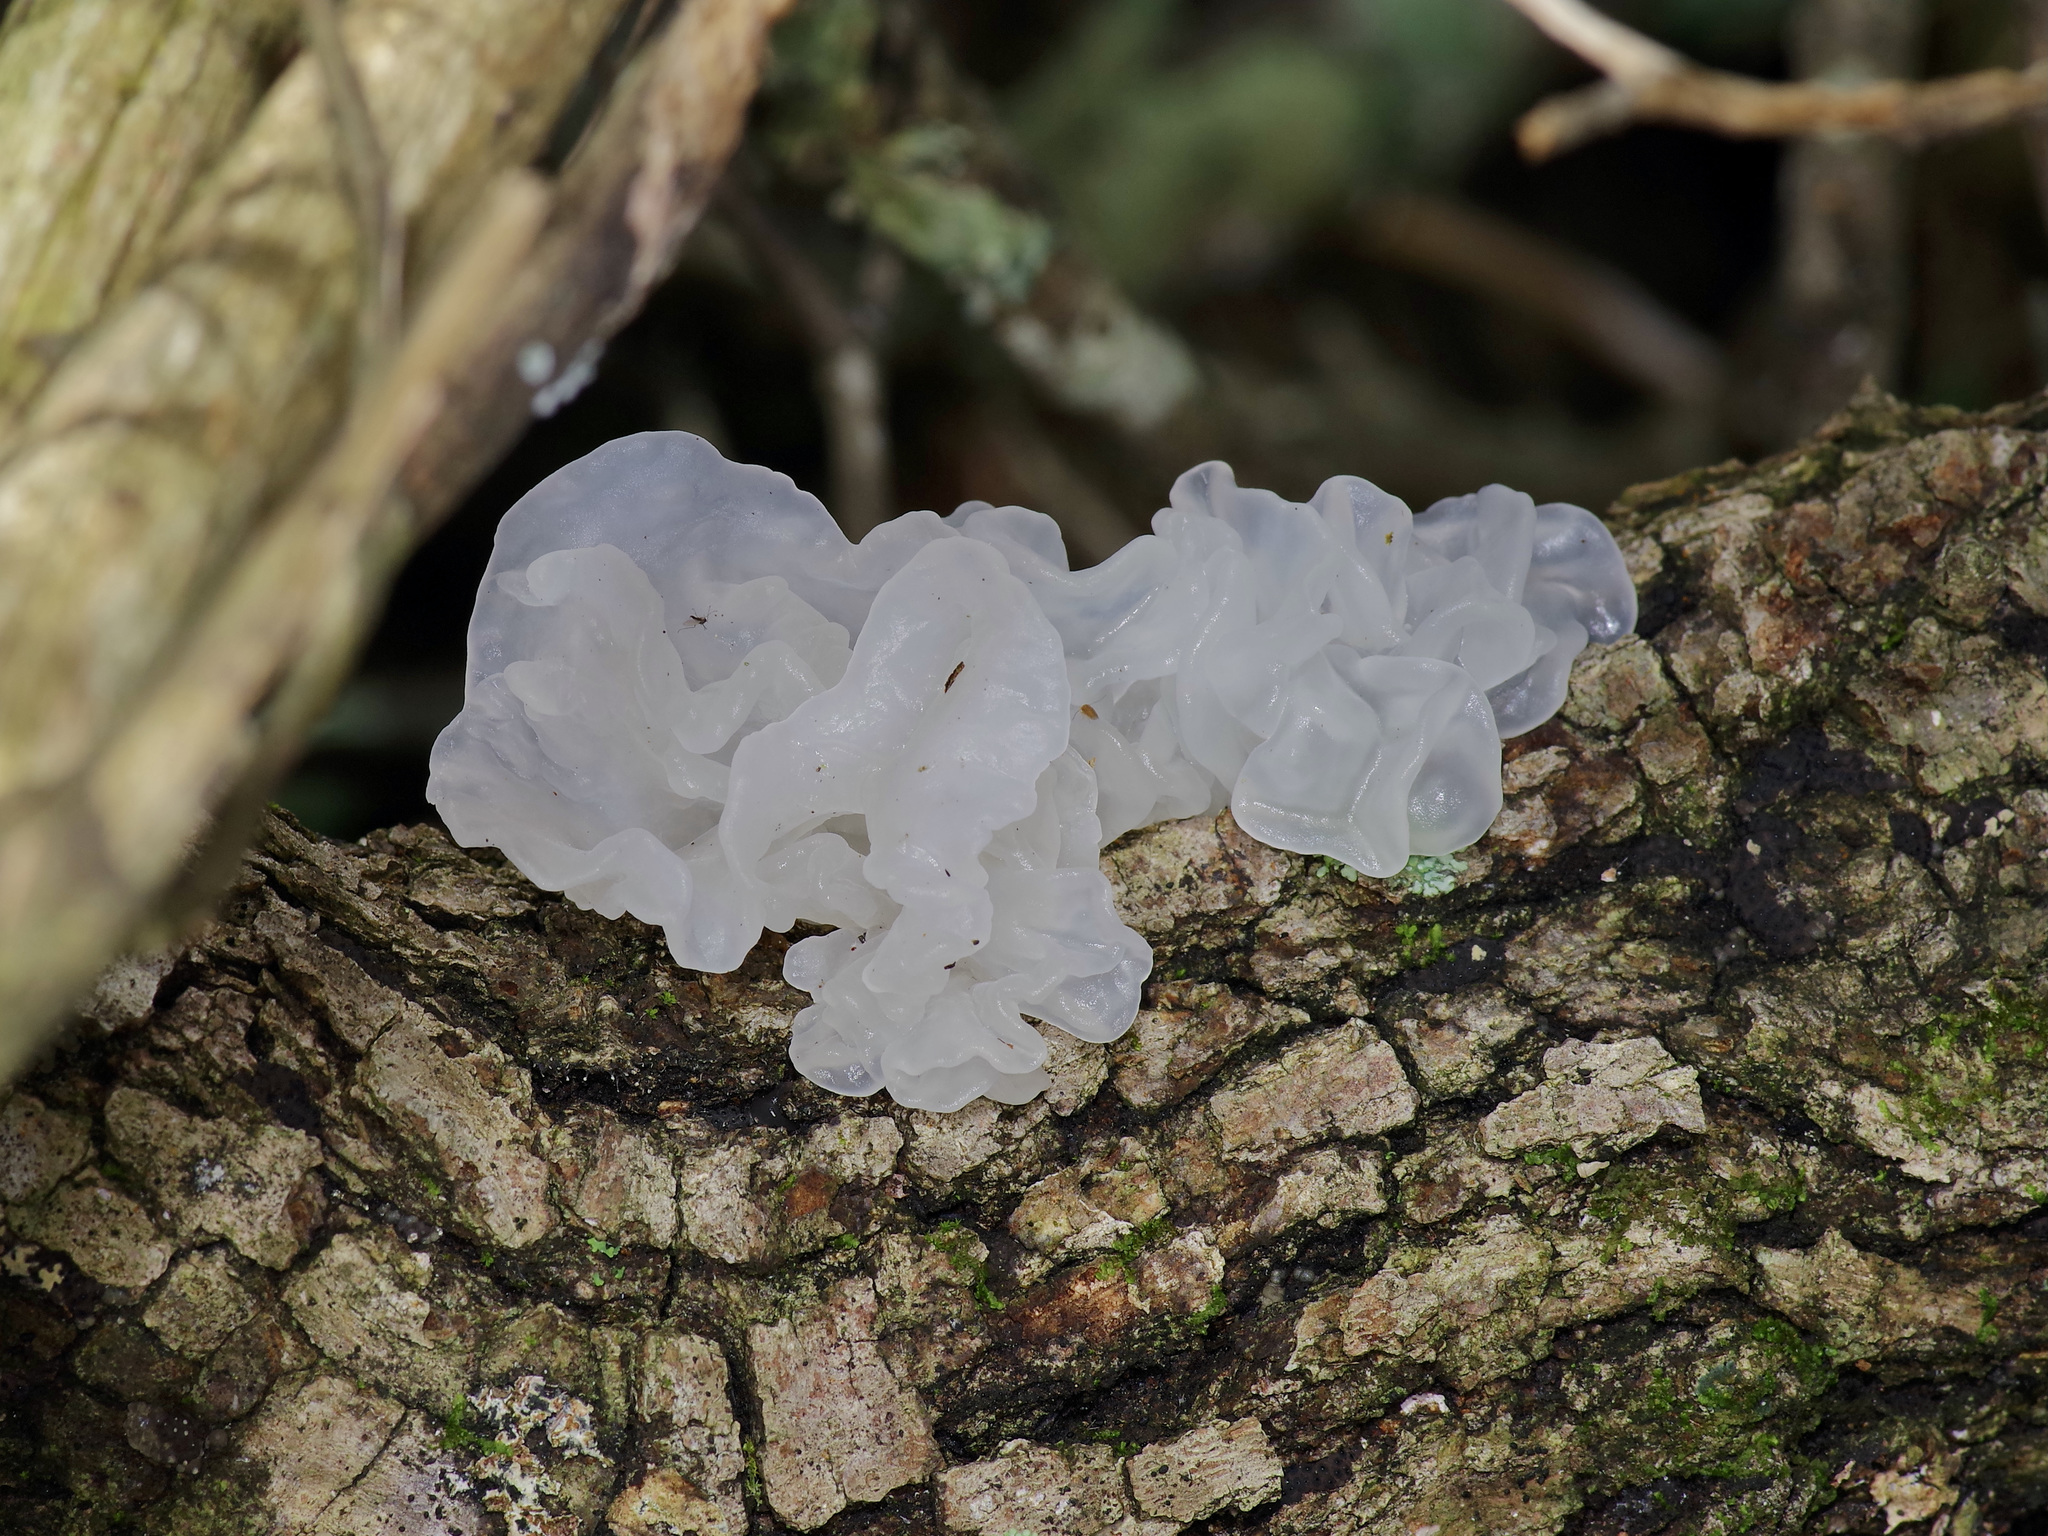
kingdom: Fungi
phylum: Basidiomycota
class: Tremellomycetes
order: Tremellales
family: Tremellaceae
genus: Tremella
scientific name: Tremella fuciformis
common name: Snow fungus
